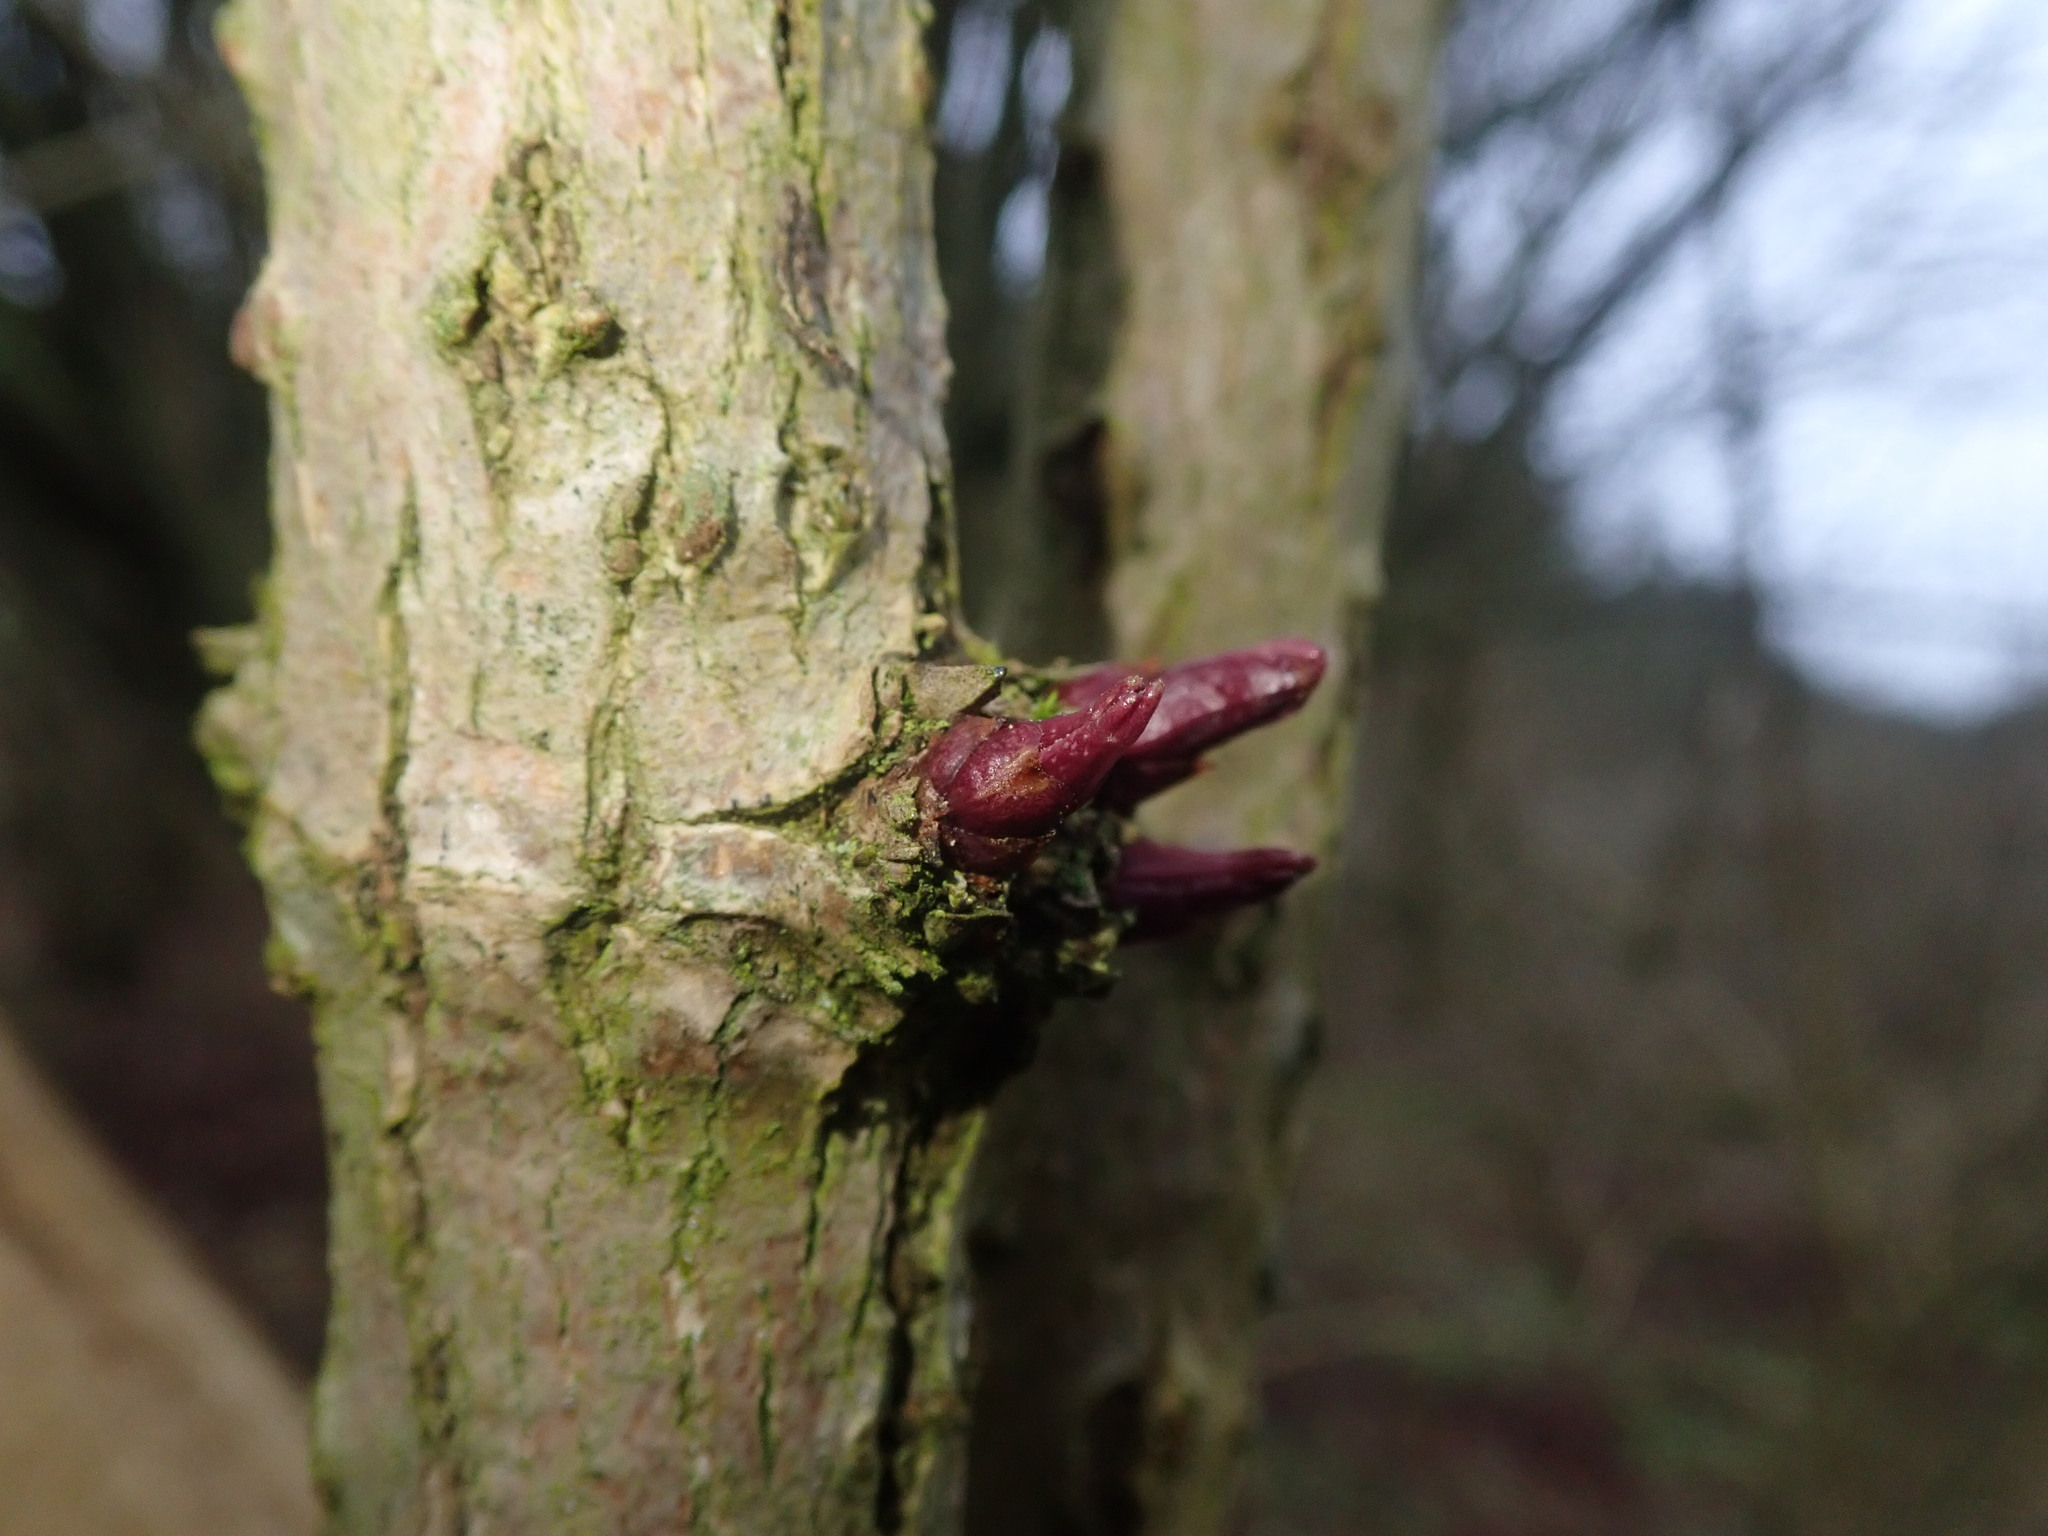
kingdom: Plantae
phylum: Tracheophyta
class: Magnoliopsida
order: Dipsacales
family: Viburnaceae
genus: Sambucus
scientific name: Sambucus nigra
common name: Elder
